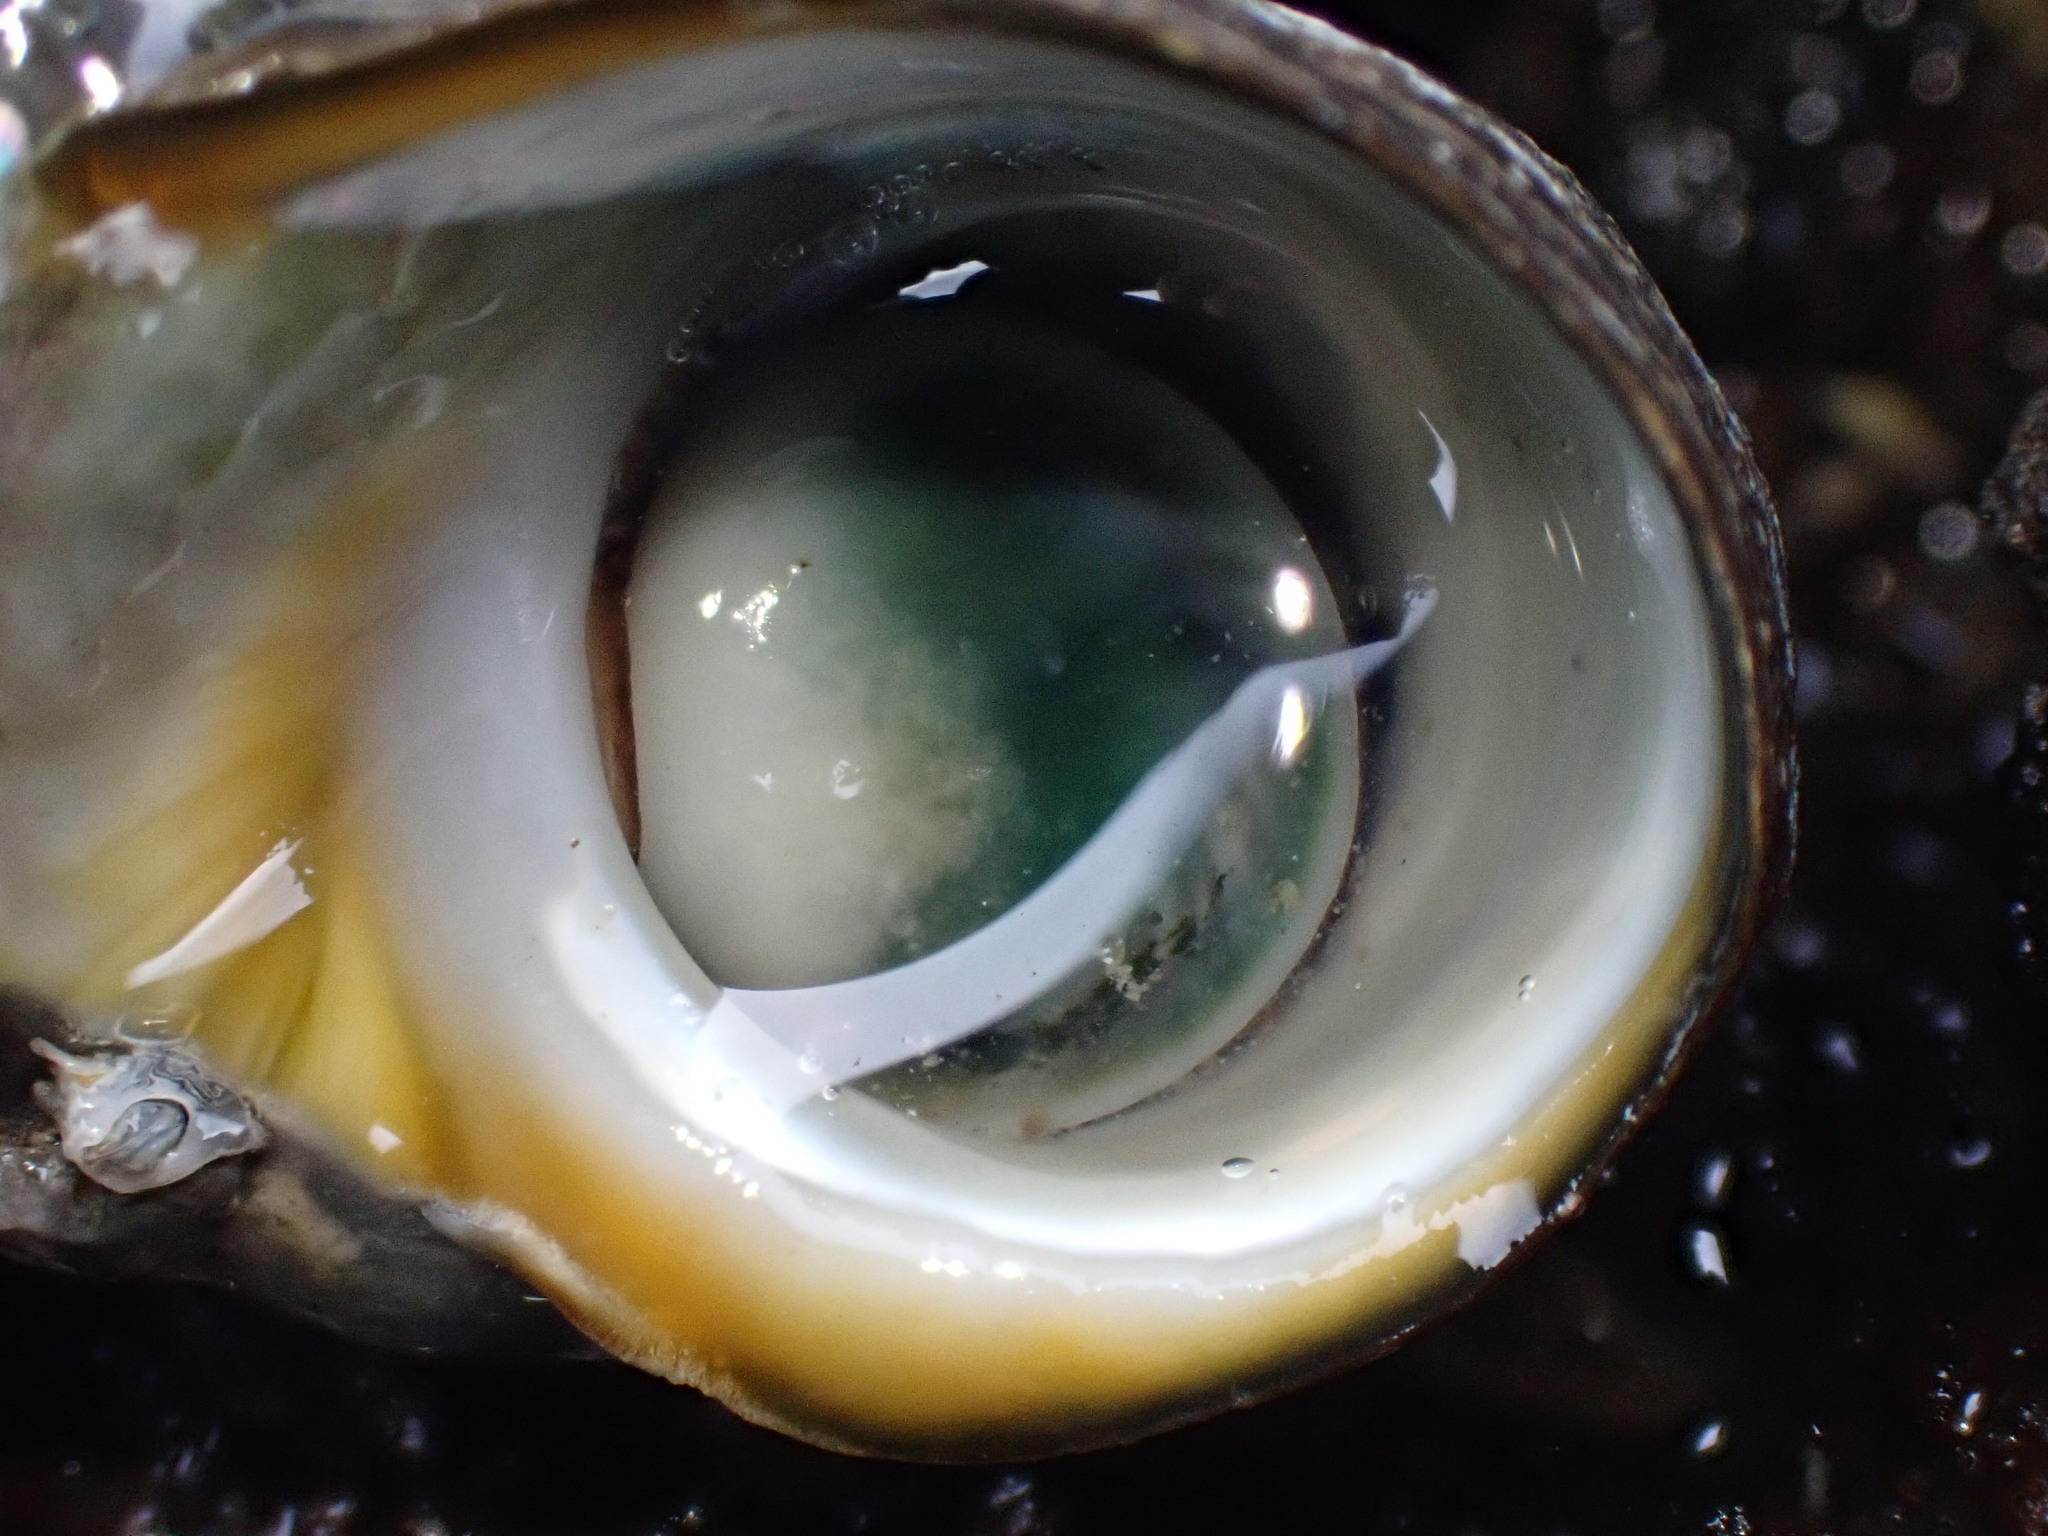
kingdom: Animalia
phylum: Mollusca
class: Gastropoda
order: Trochida
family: Turbinidae
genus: Lunella
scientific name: Lunella smaragda
